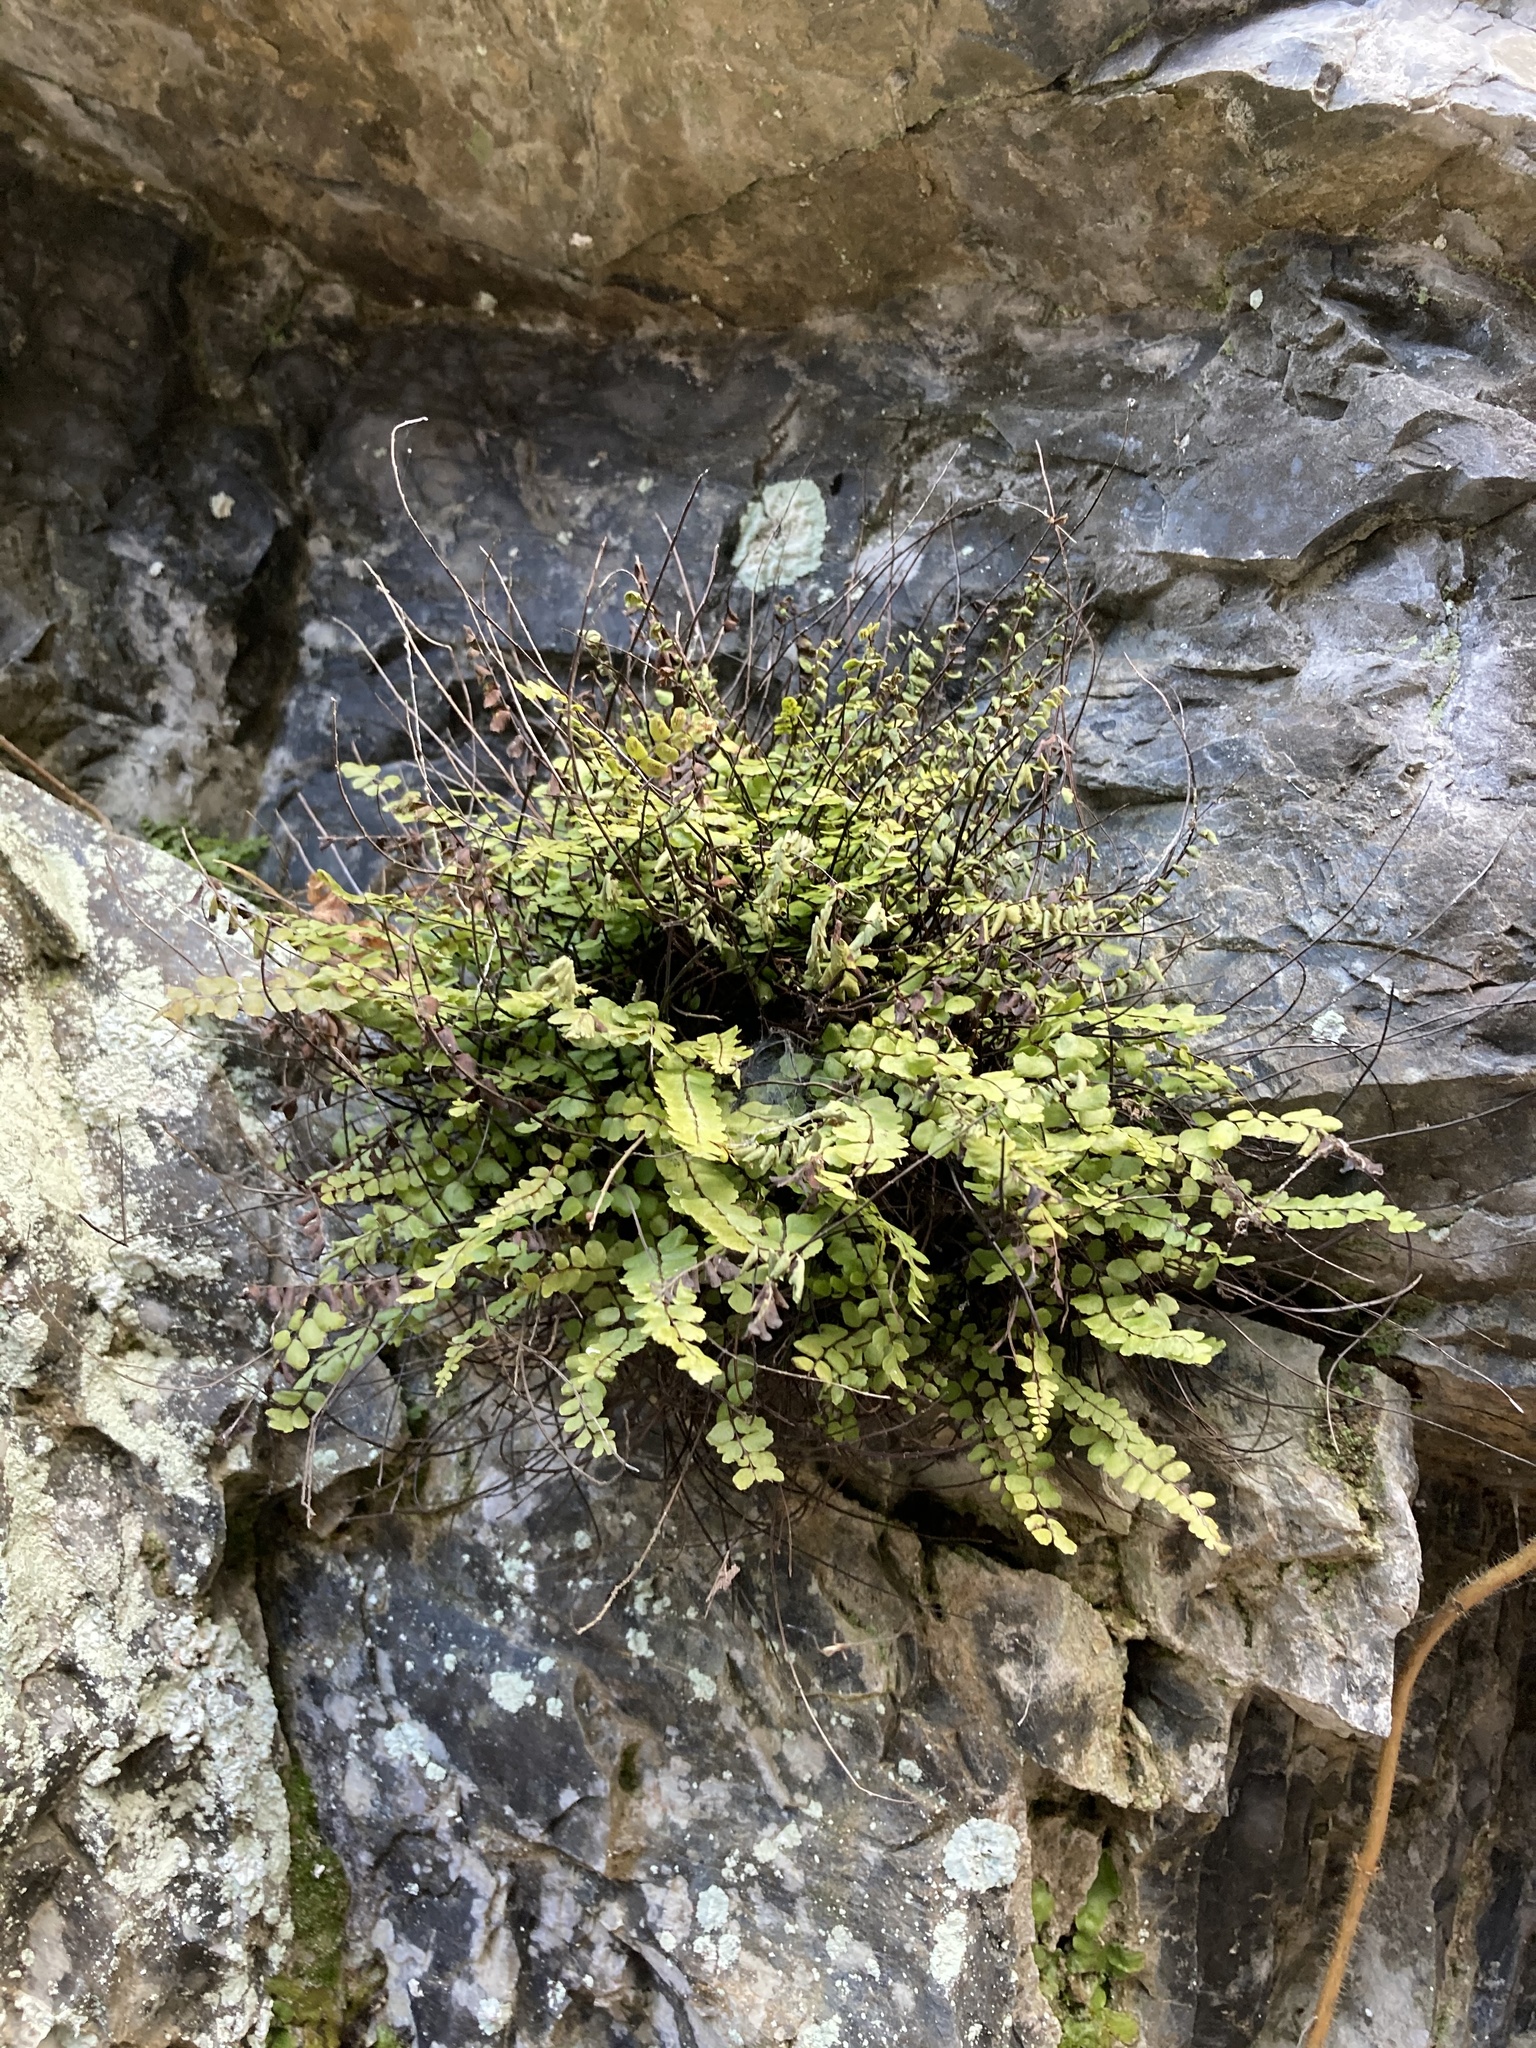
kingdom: Plantae
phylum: Tracheophyta
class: Polypodiopsida
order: Polypodiales
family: Aspleniaceae
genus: Asplenium
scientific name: Asplenium trichomanes
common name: Maidenhair spleenwort
